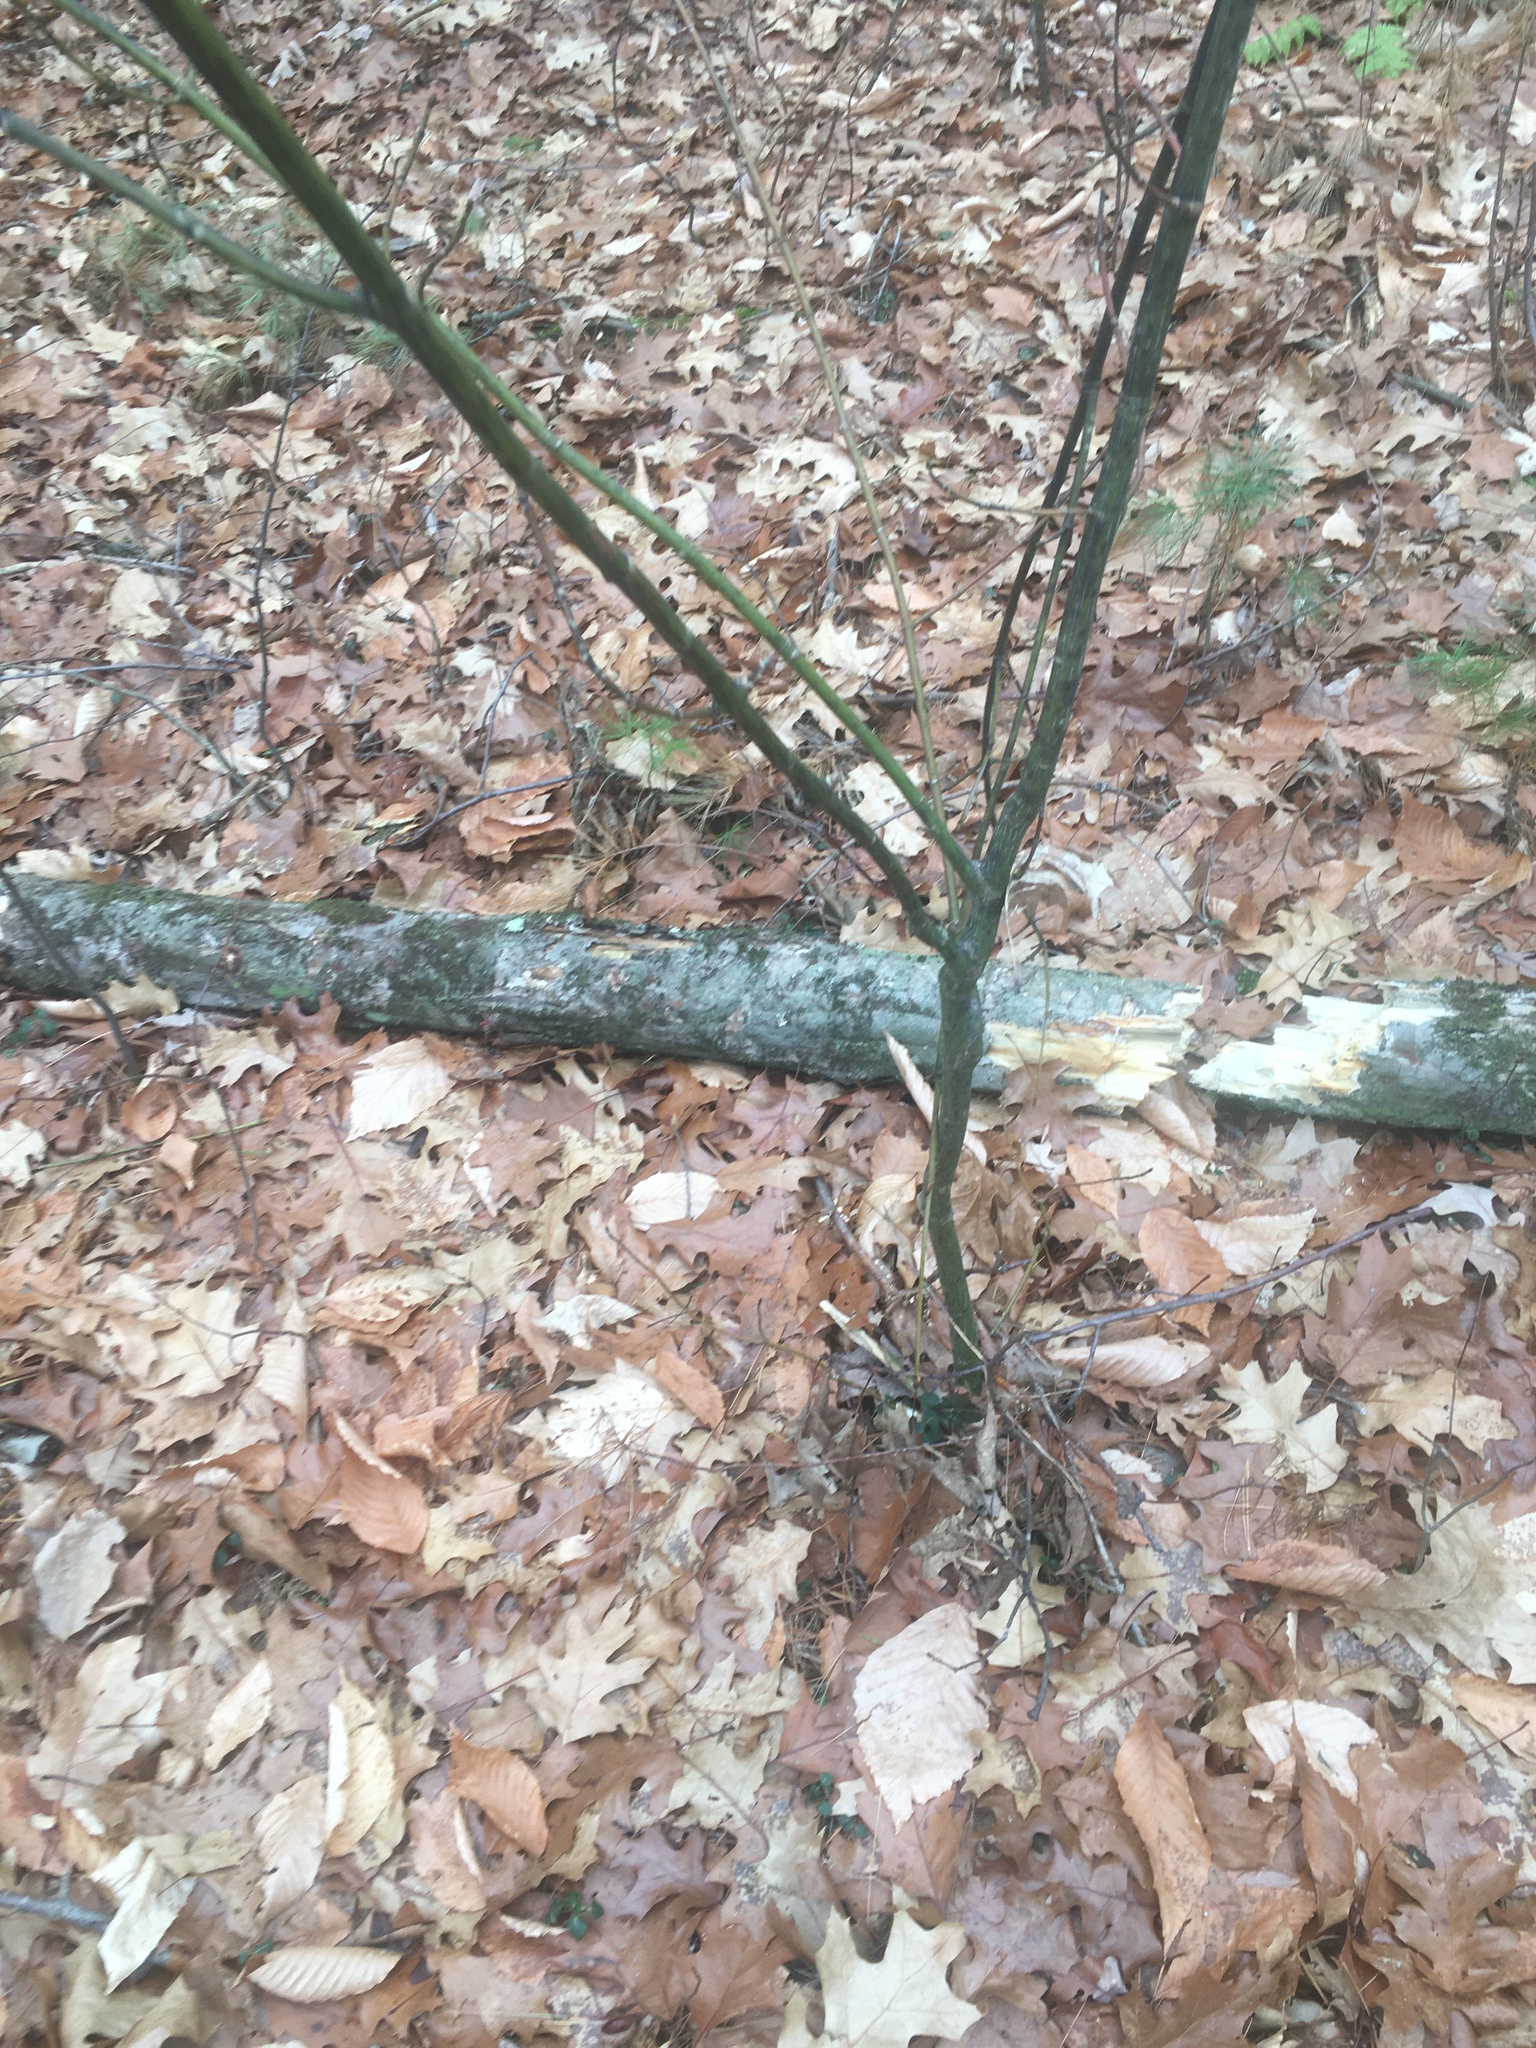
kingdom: Plantae
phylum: Tracheophyta
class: Magnoliopsida
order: Sapindales
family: Sapindaceae
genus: Acer
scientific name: Acer pensylvanicum
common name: Moosewood
